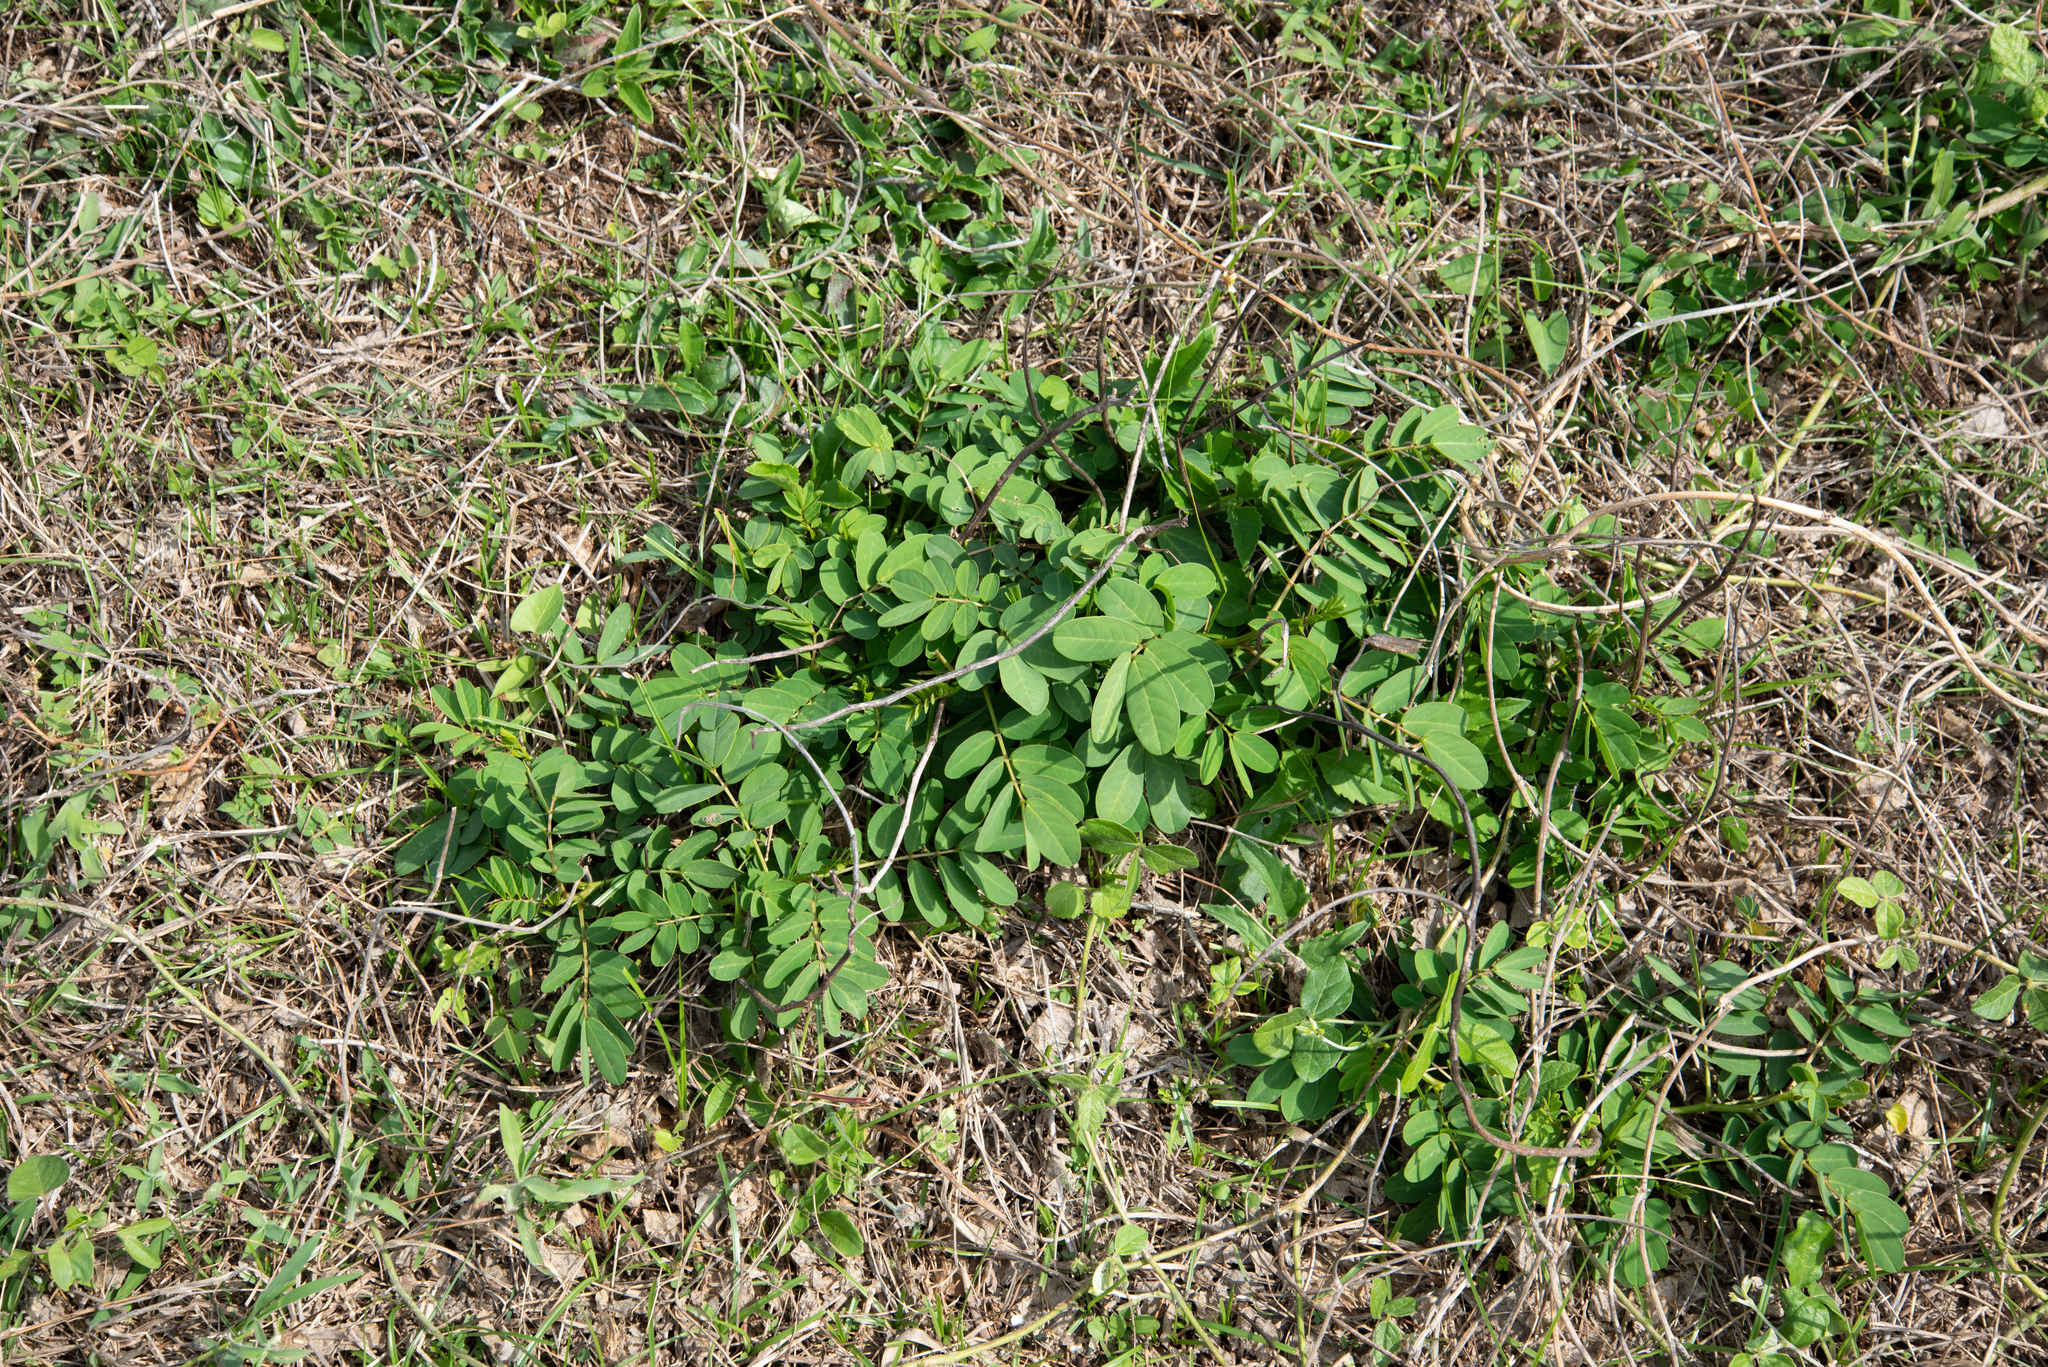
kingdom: Plantae
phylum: Tracheophyta
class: Magnoliopsida
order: Fabales
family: Fabaceae
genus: Senna
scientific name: Senna sophera
